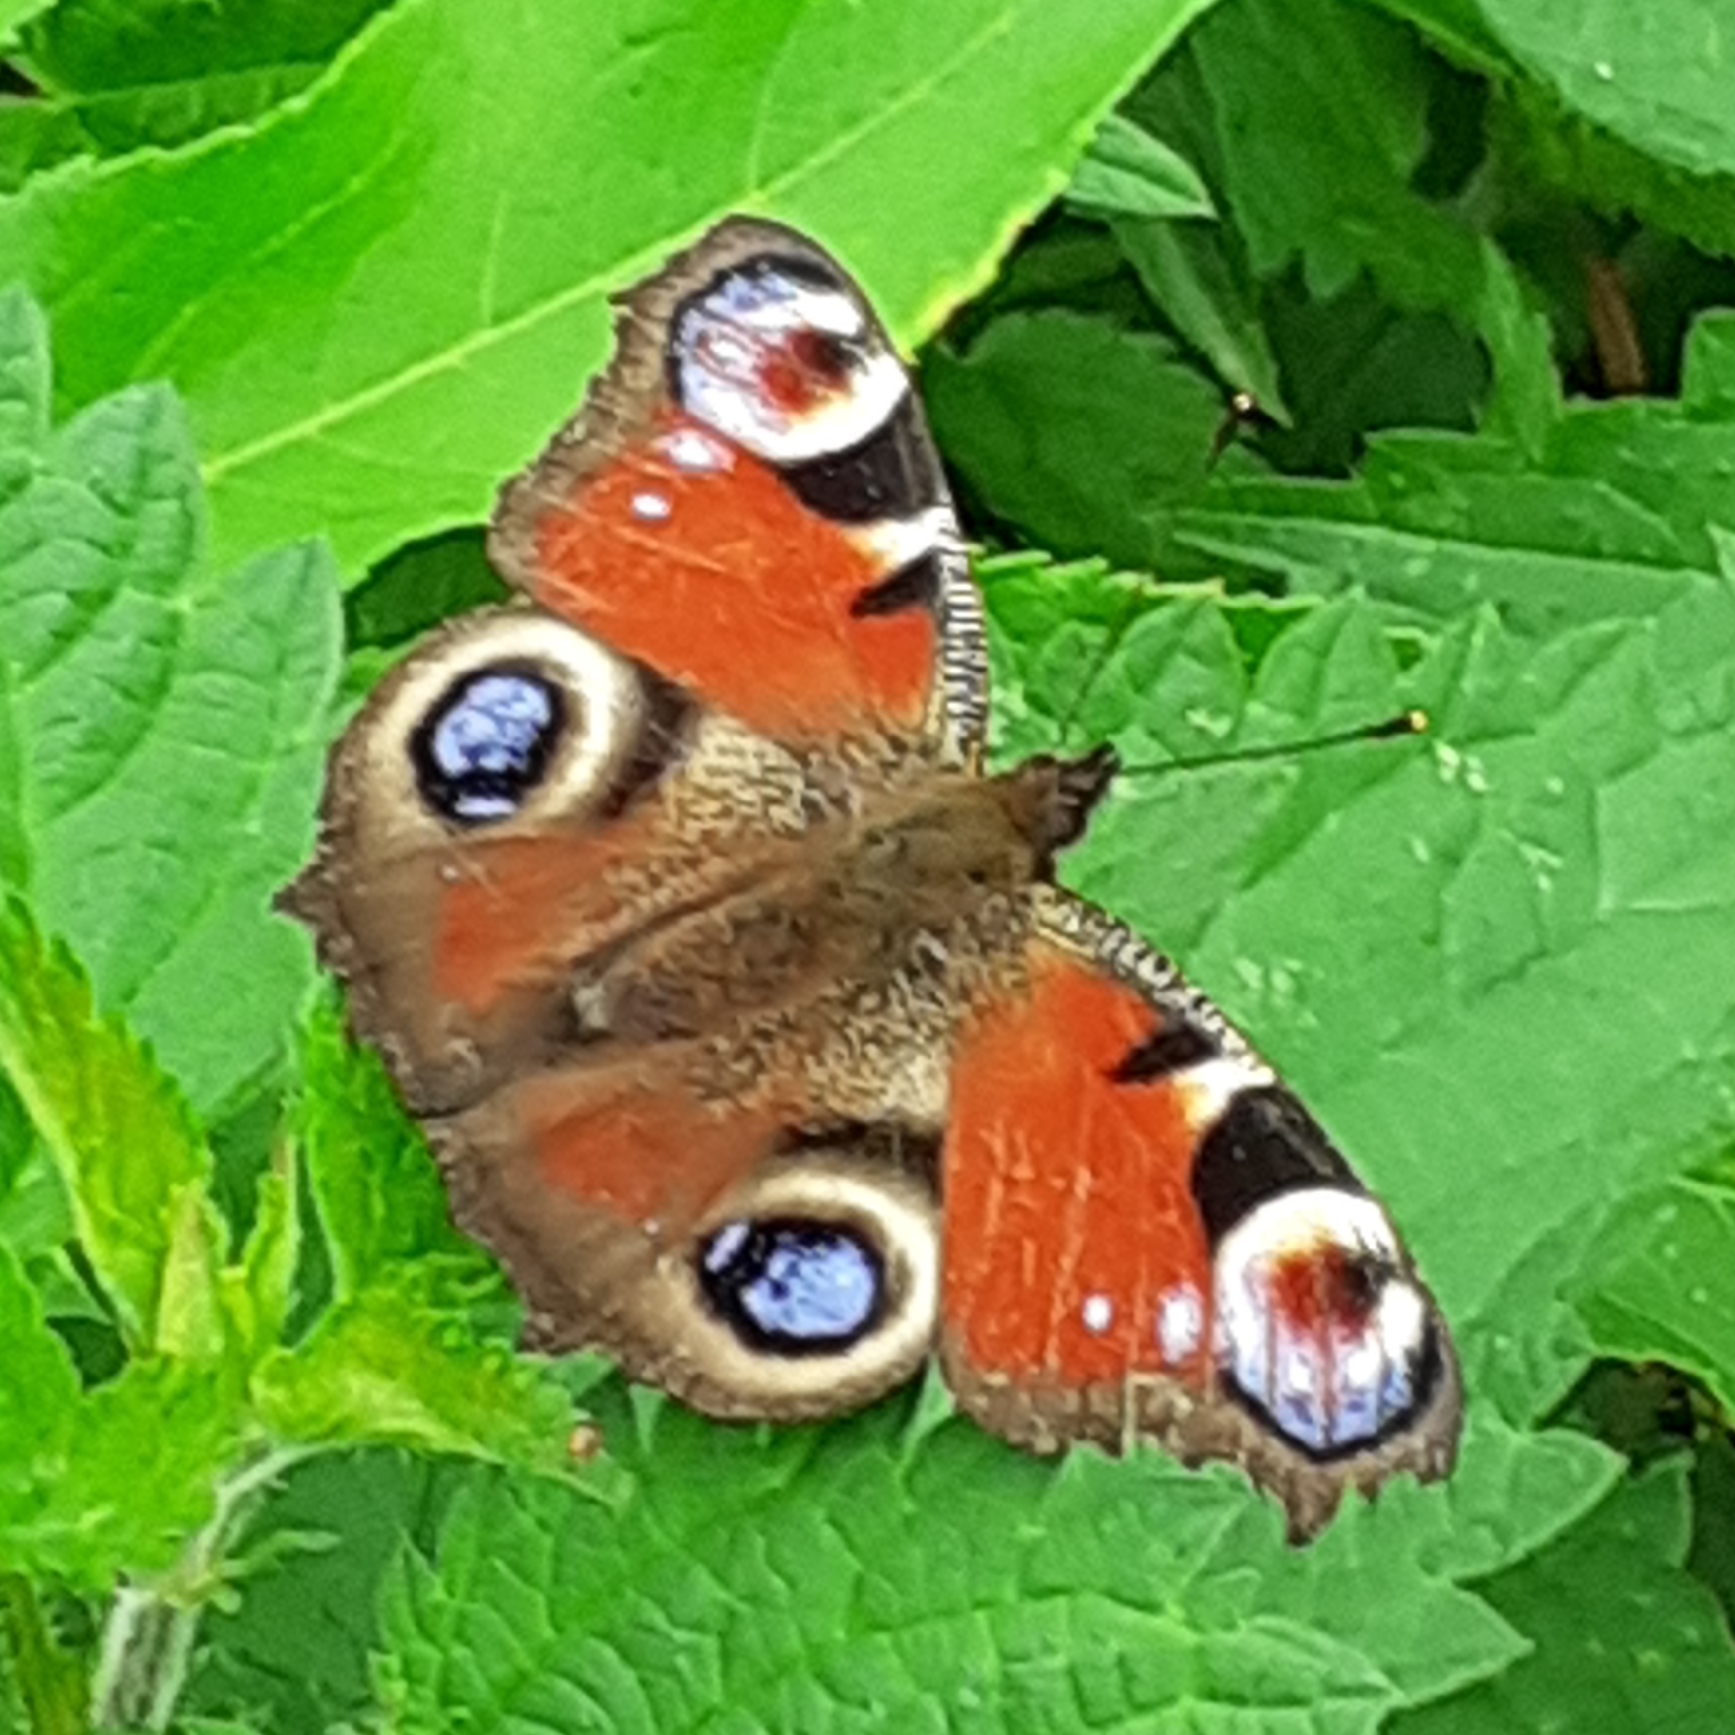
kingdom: Animalia
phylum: Arthropoda
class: Insecta
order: Lepidoptera
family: Nymphalidae
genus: Aglais
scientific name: Aglais io
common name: Peacock
